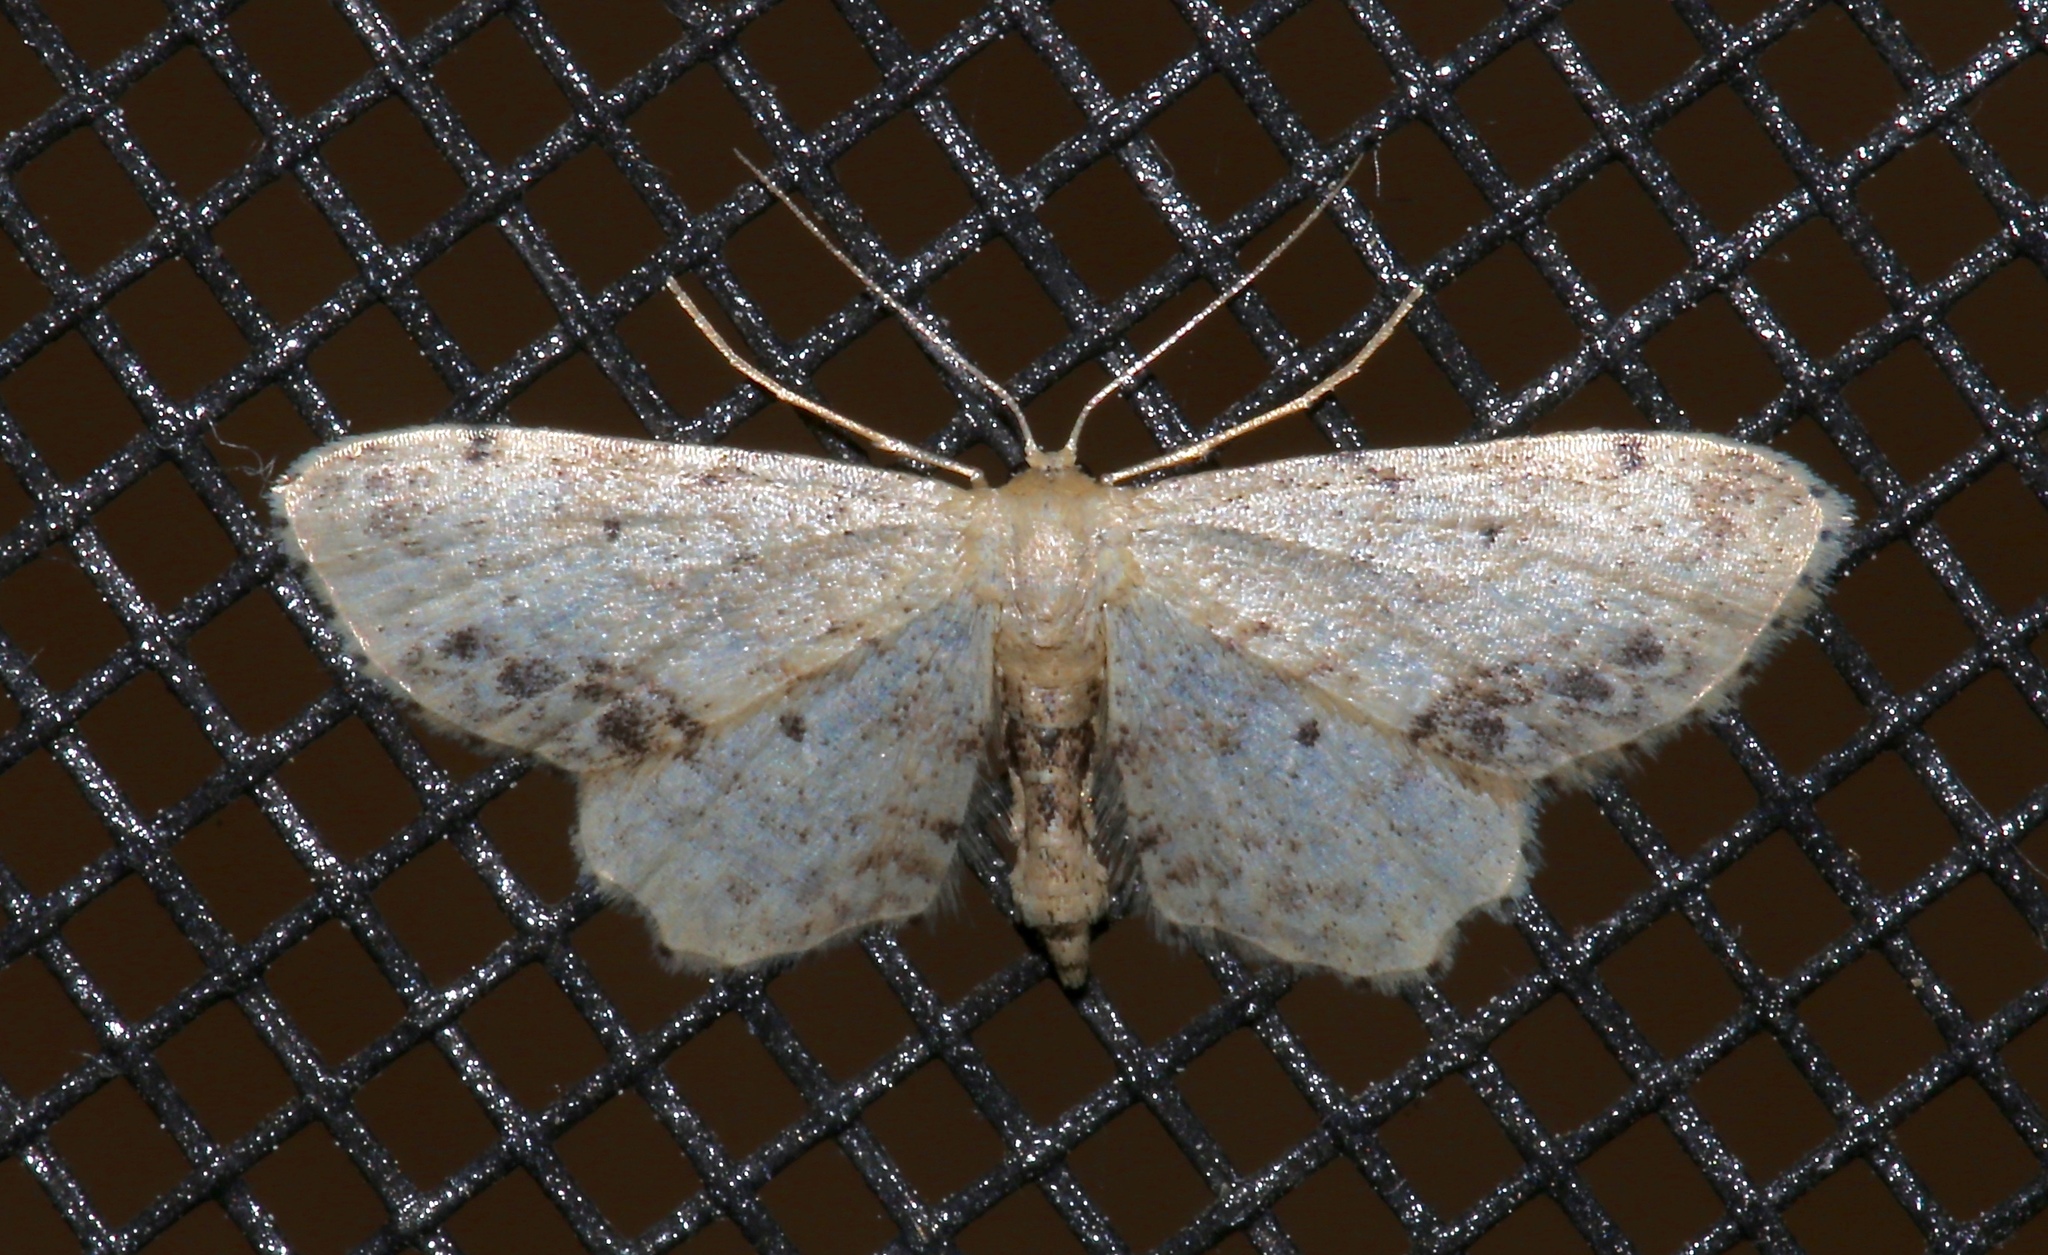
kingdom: Animalia
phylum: Arthropoda
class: Insecta
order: Lepidoptera
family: Geometridae
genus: Idaea
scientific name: Idaea dimidiata
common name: Single-dotted wave
